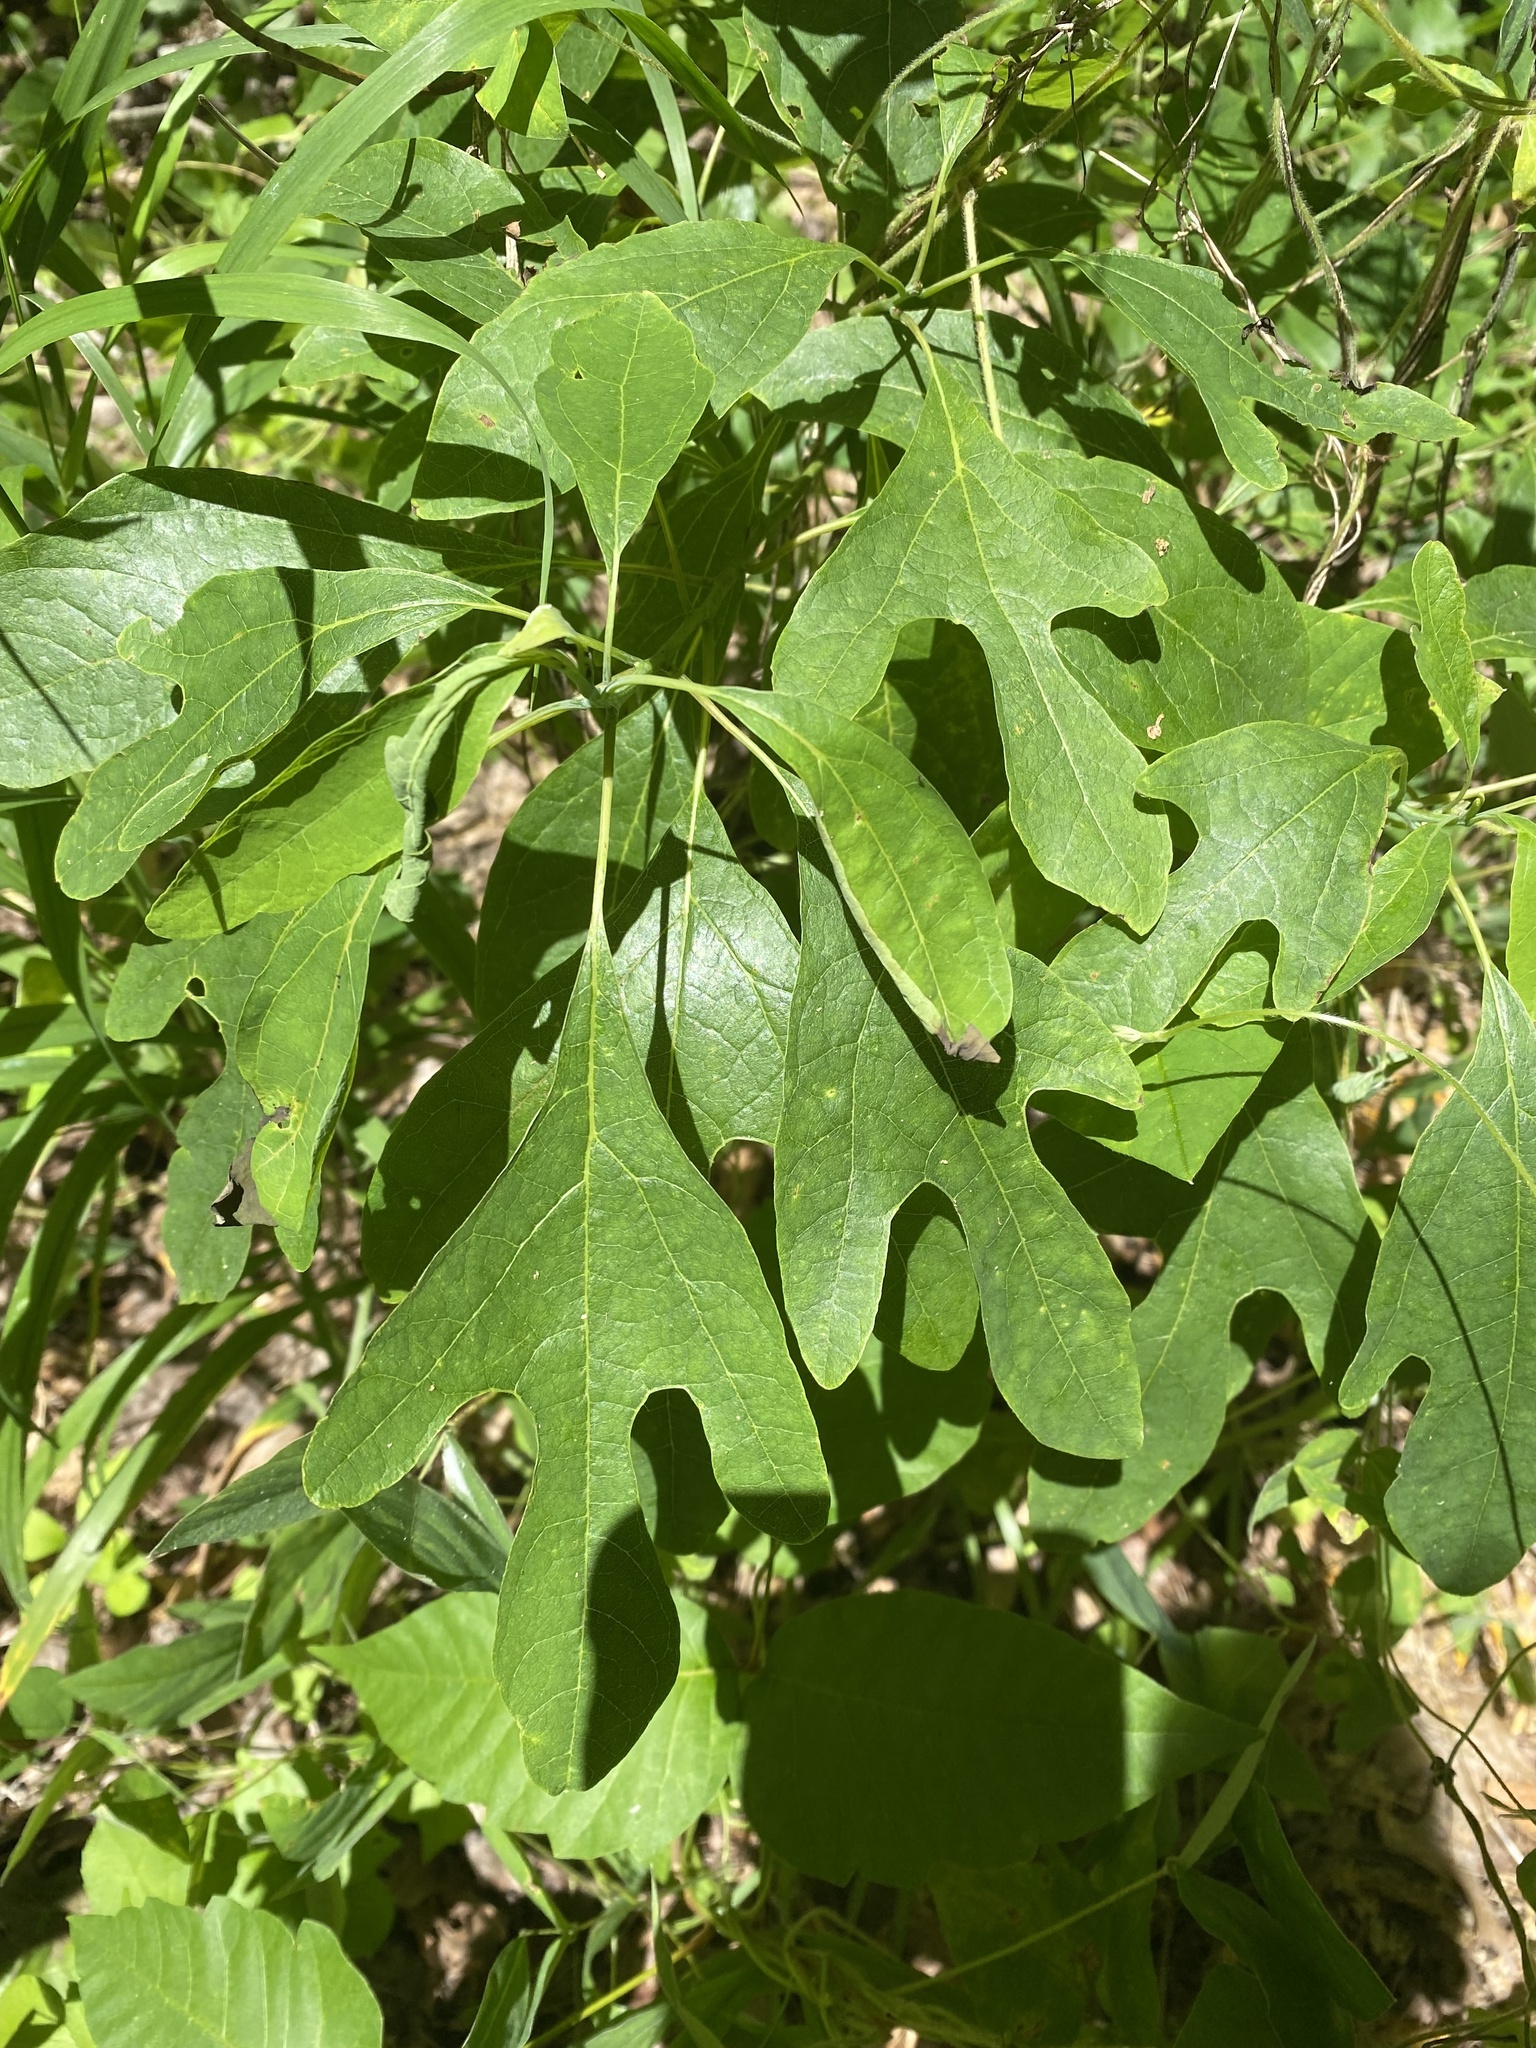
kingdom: Plantae
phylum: Tracheophyta
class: Magnoliopsida
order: Laurales
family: Lauraceae
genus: Sassafras
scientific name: Sassafras albidum
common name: Sassafras
